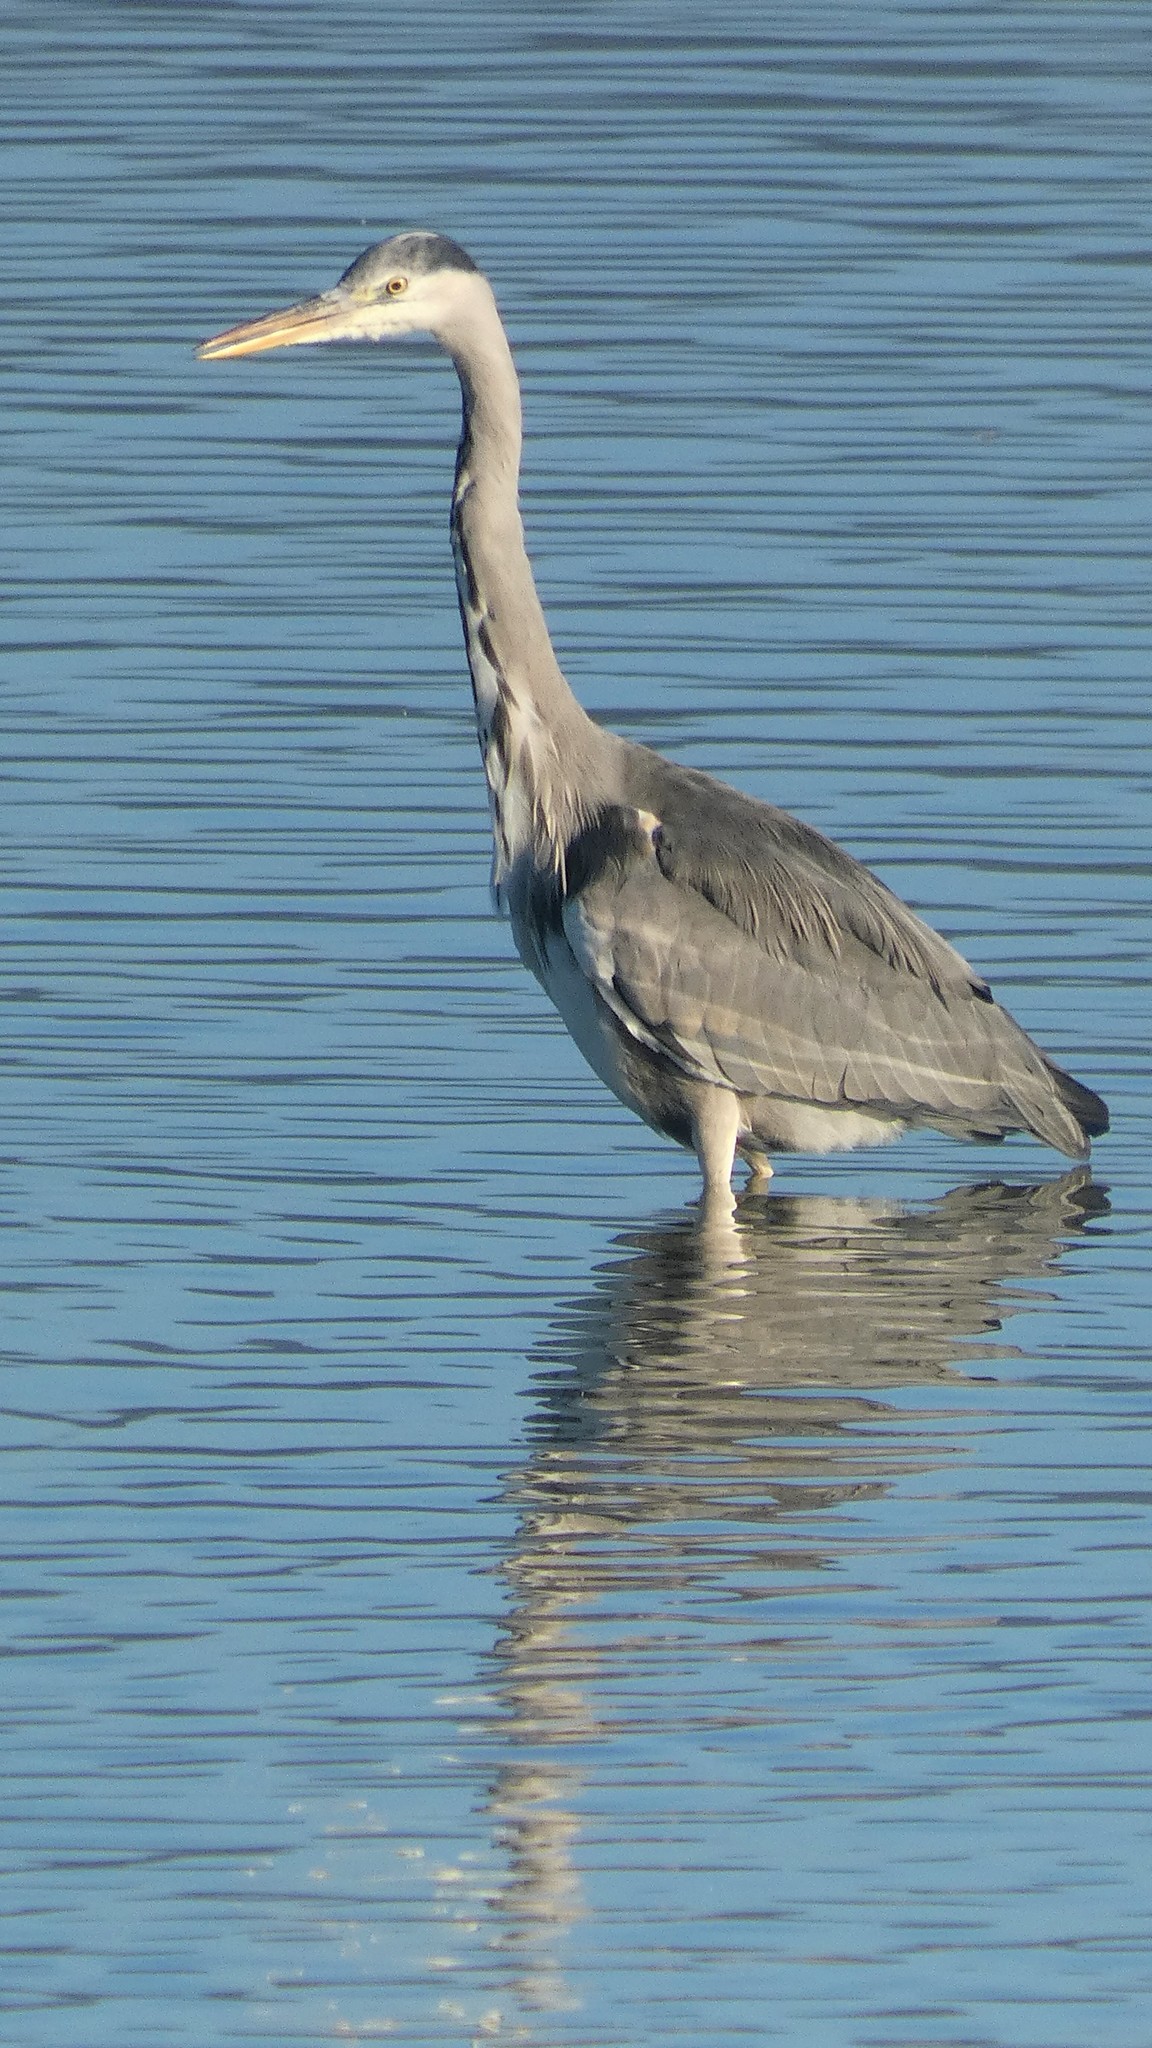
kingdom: Animalia
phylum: Chordata
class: Aves
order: Pelecaniformes
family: Ardeidae
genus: Ardea
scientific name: Ardea cinerea
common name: Grey heron
